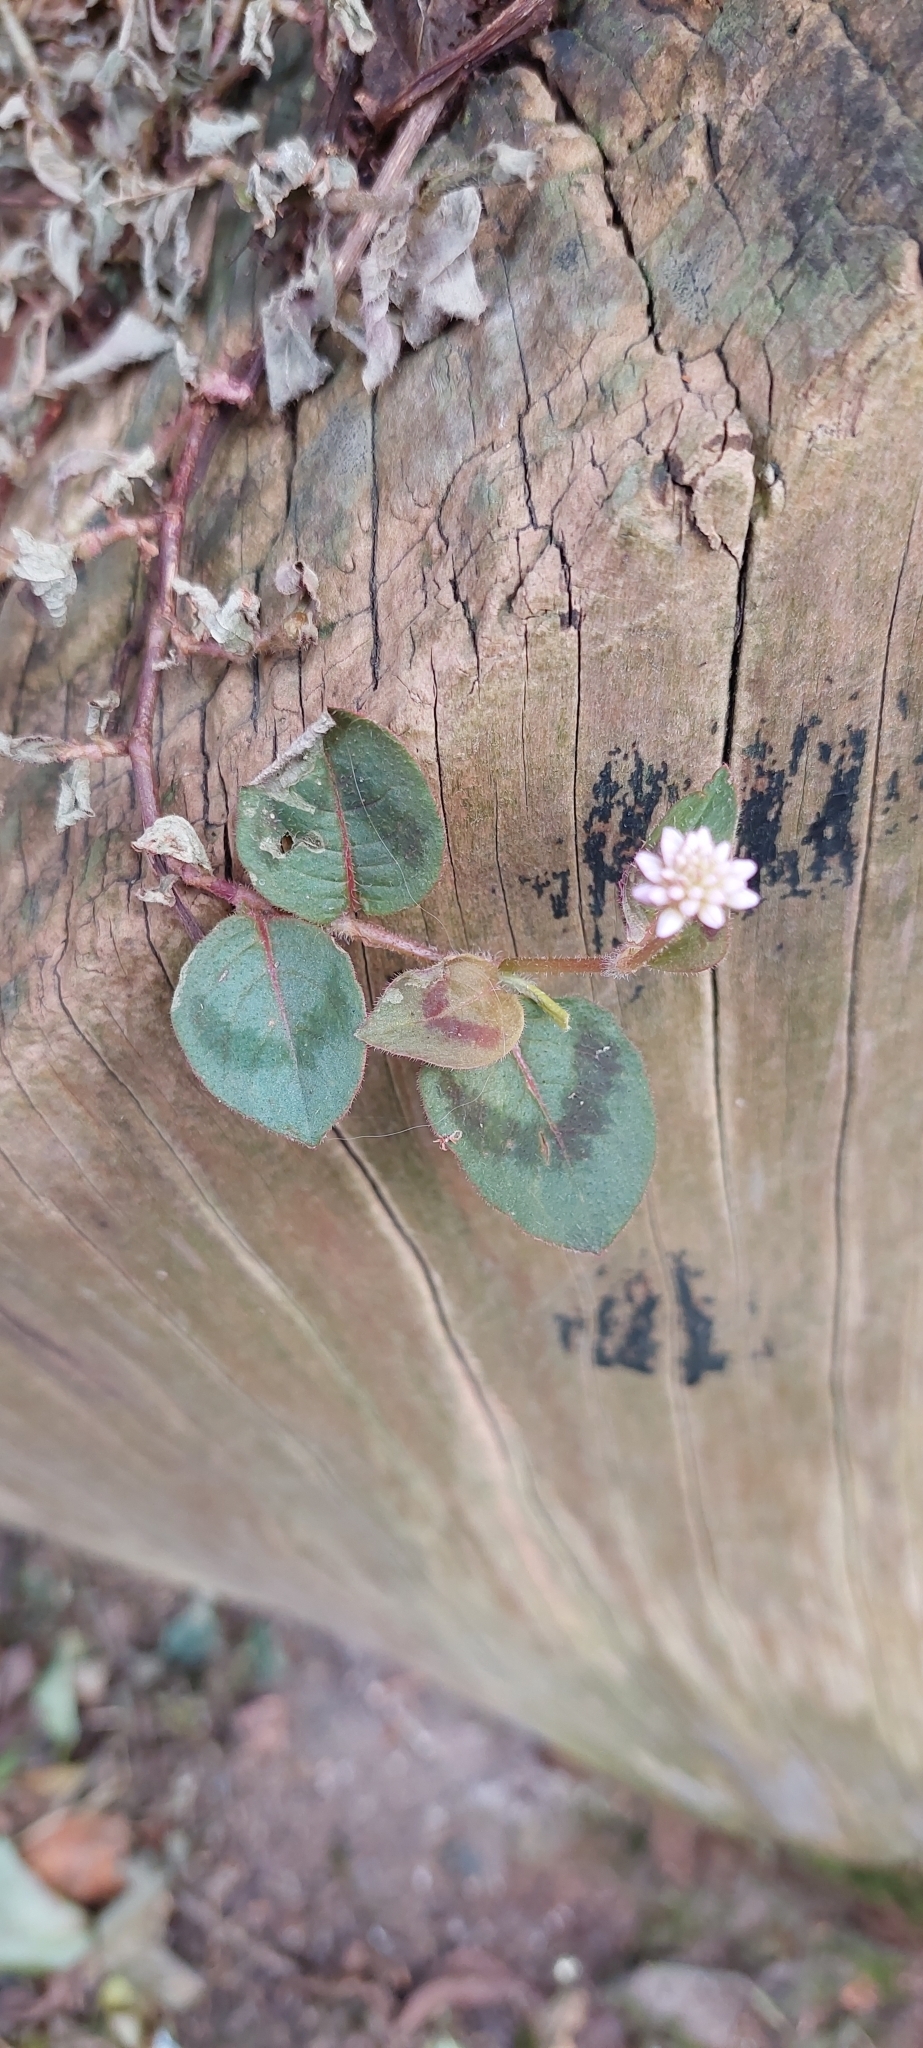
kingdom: Plantae
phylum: Tracheophyta
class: Magnoliopsida
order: Caryophyllales
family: Polygonaceae
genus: Persicaria
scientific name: Persicaria capitata
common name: Pinkhead smartweed
